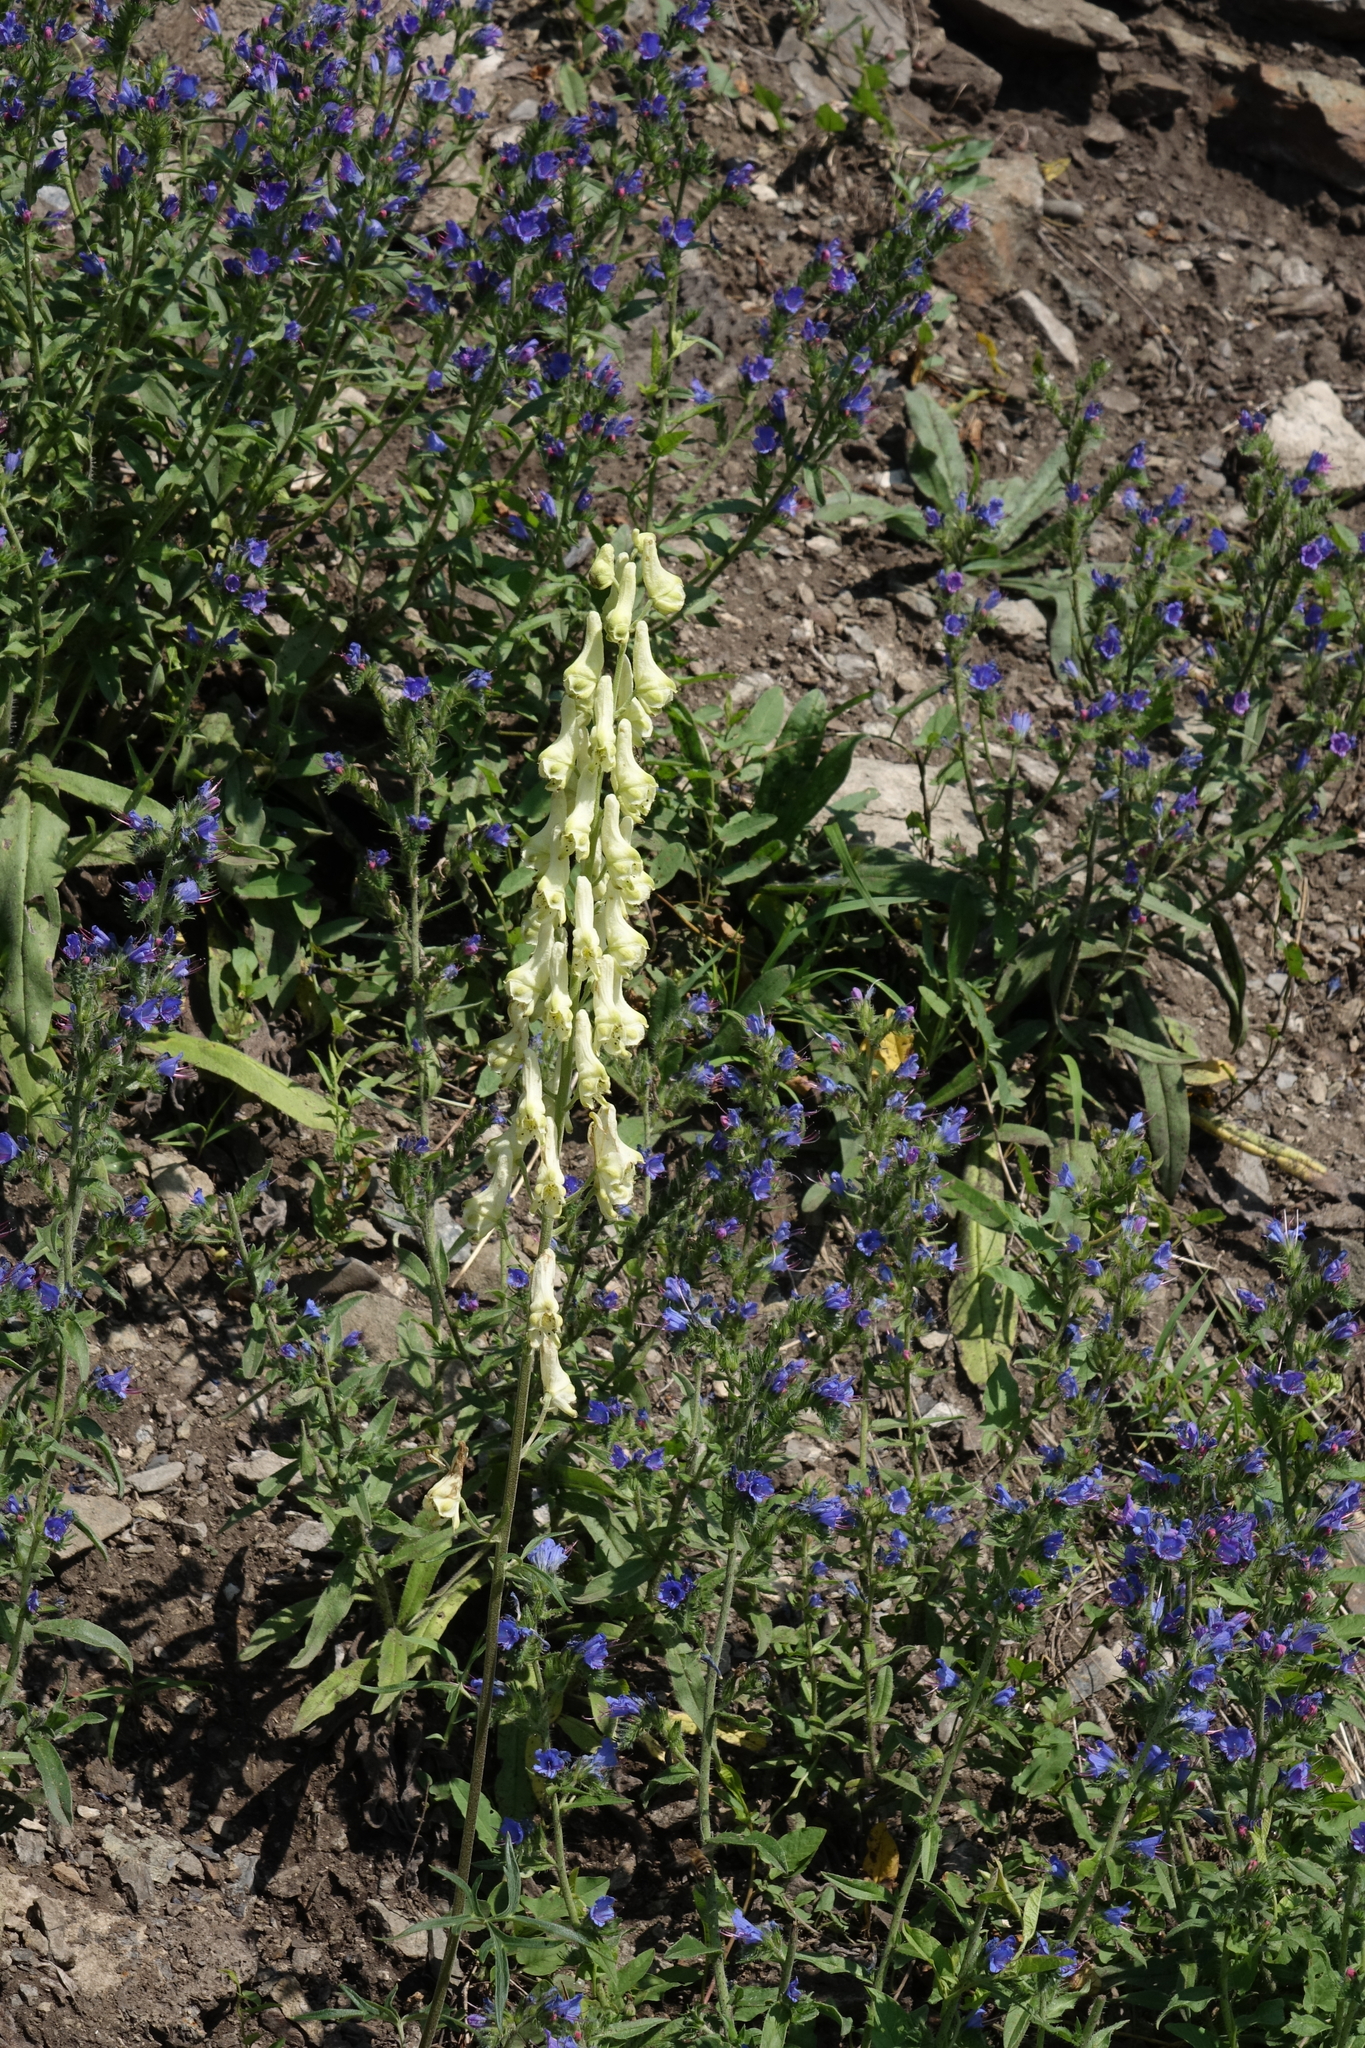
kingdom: Plantae
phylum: Tracheophyta
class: Magnoliopsida
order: Ranunculales
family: Ranunculaceae
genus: Aconitum
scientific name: Aconitum barbatum
